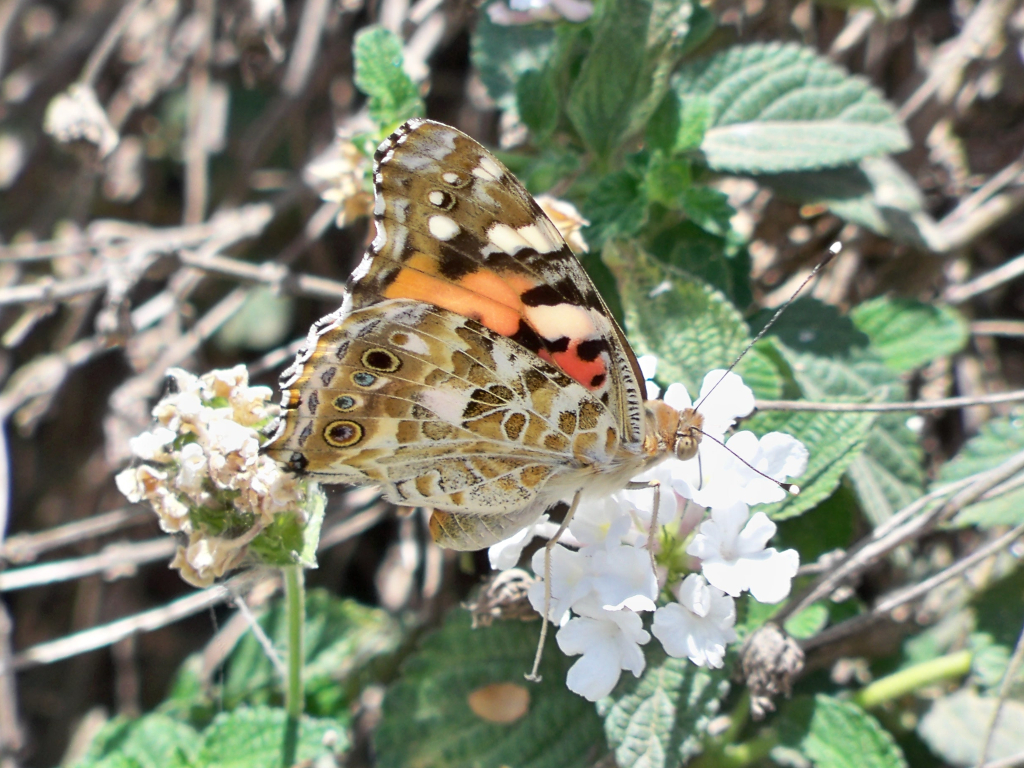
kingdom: Animalia
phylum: Arthropoda
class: Insecta
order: Lepidoptera
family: Nymphalidae
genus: Vanessa
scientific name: Vanessa cardui
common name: Painted lady
